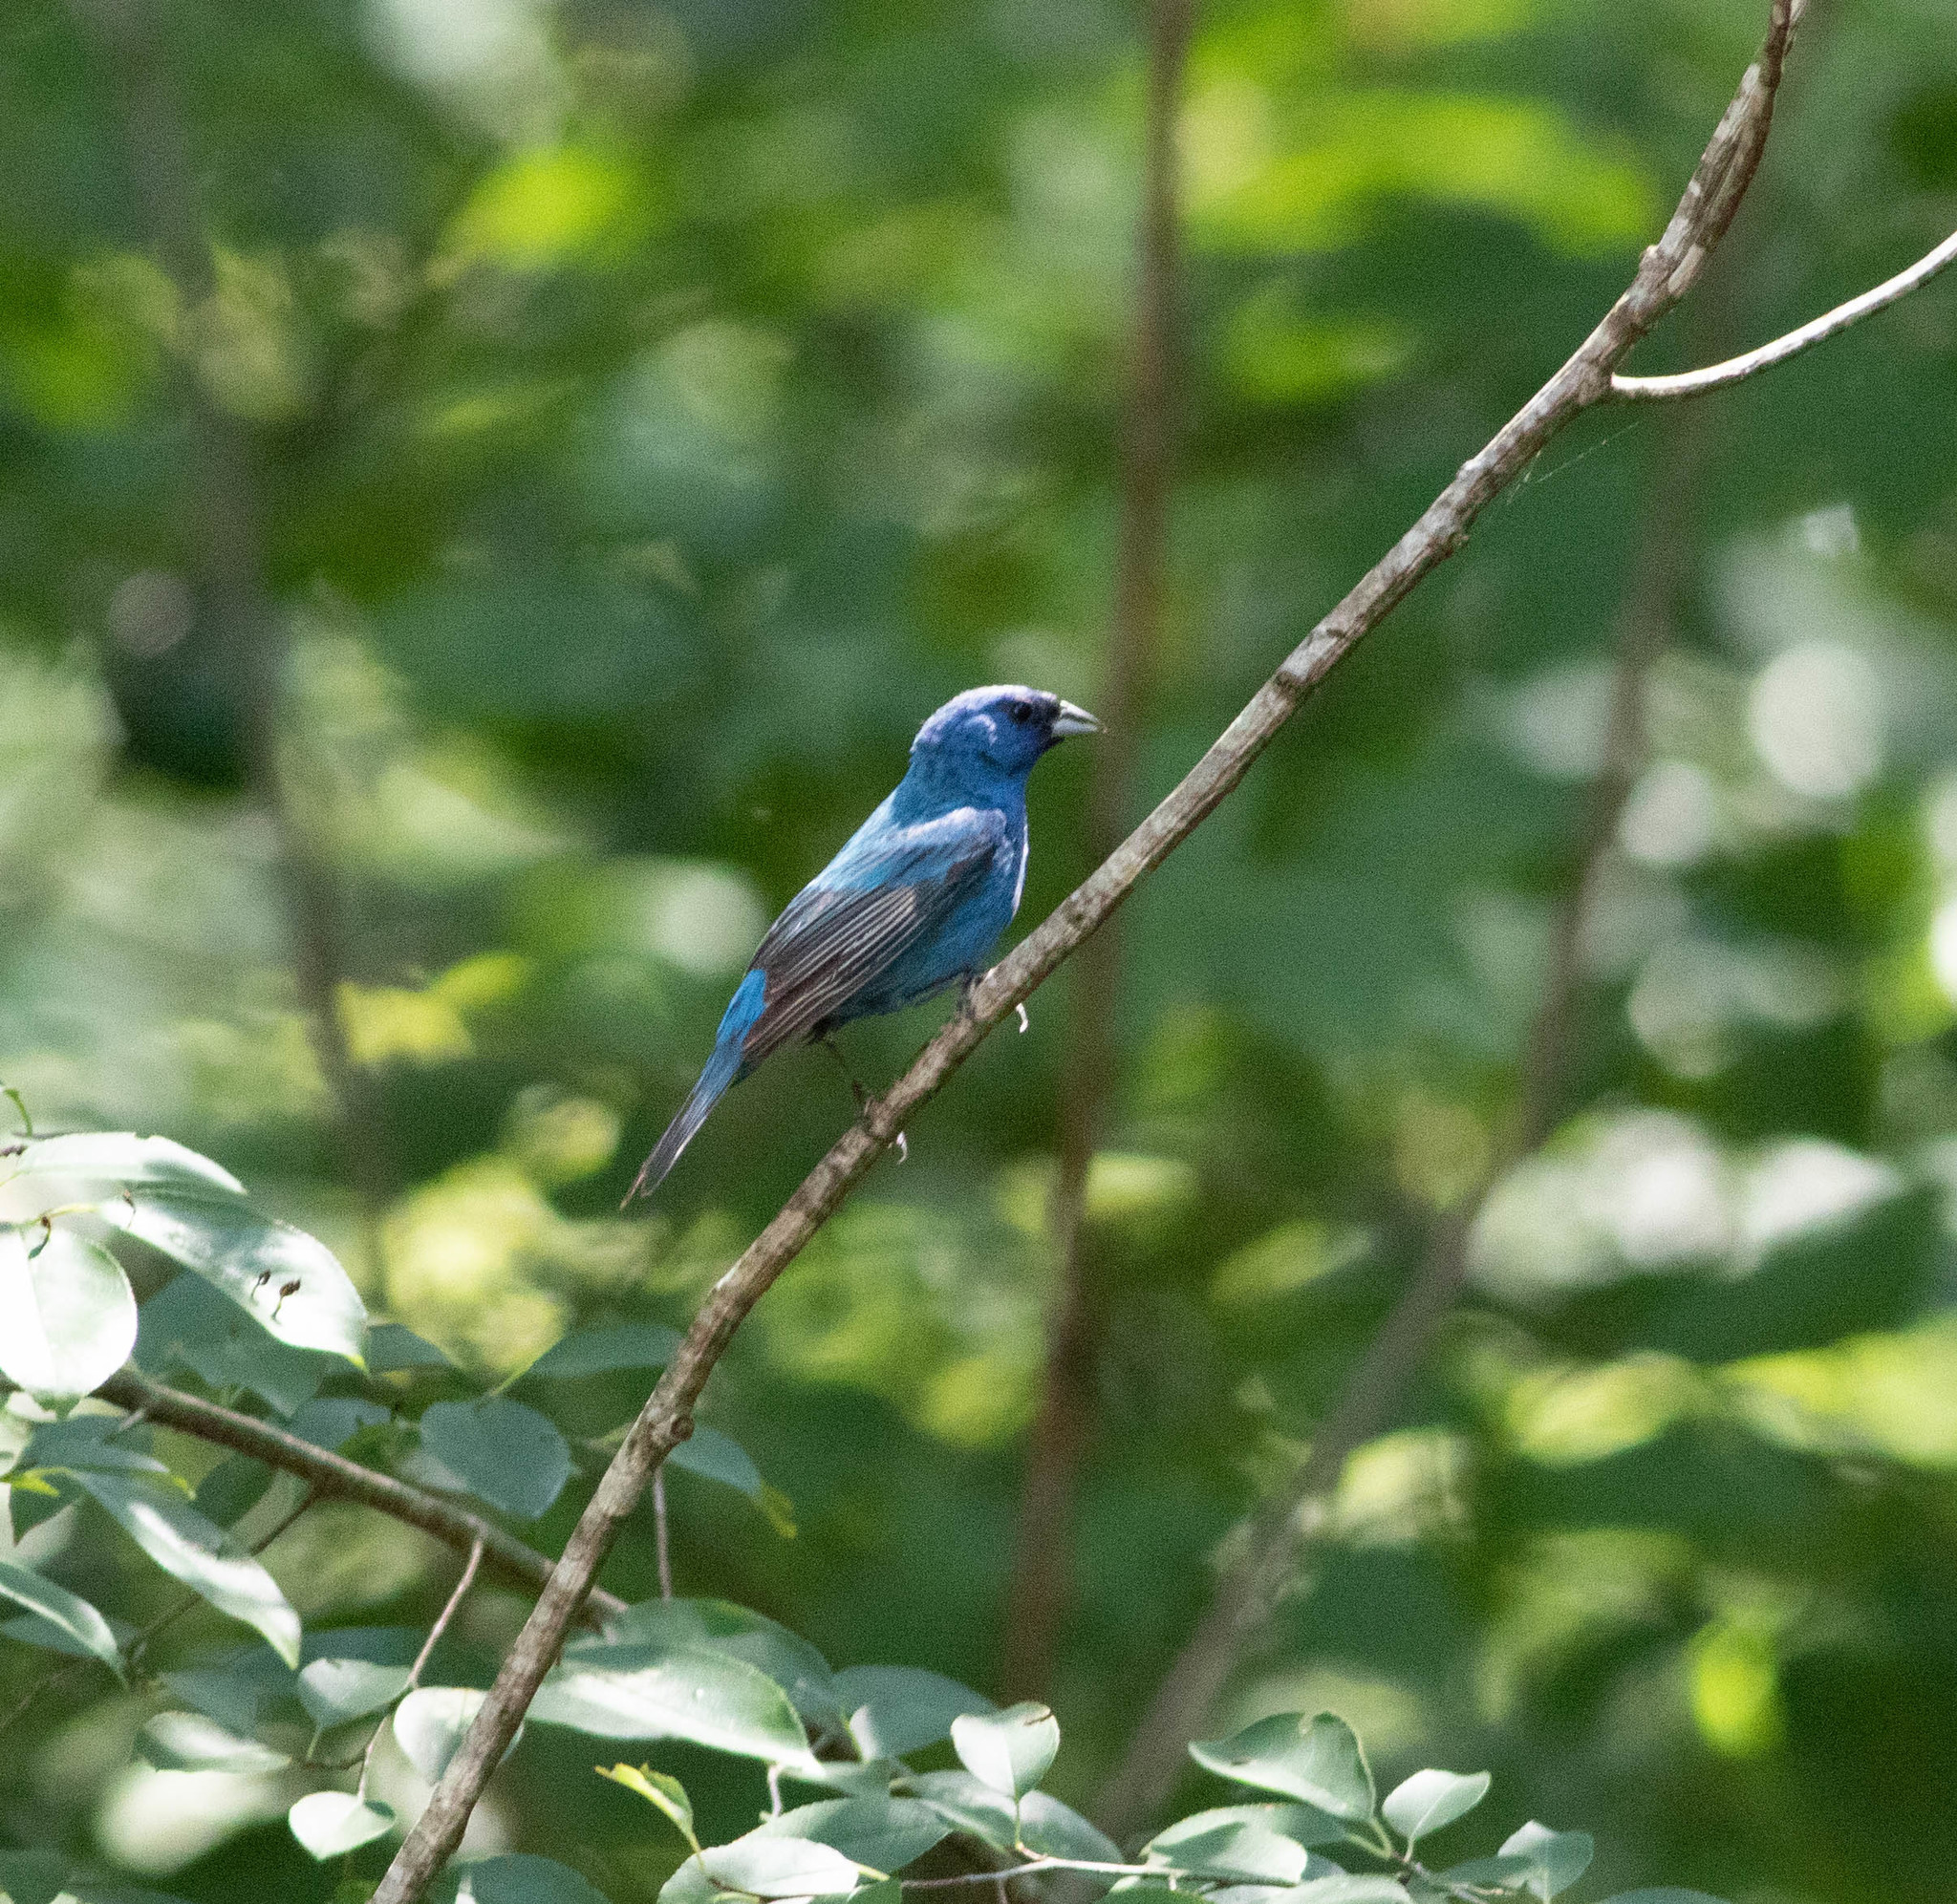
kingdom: Animalia
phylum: Chordata
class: Aves
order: Passeriformes
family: Cardinalidae
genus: Passerina
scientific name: Passerina cyanea
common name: Indigo bunting
